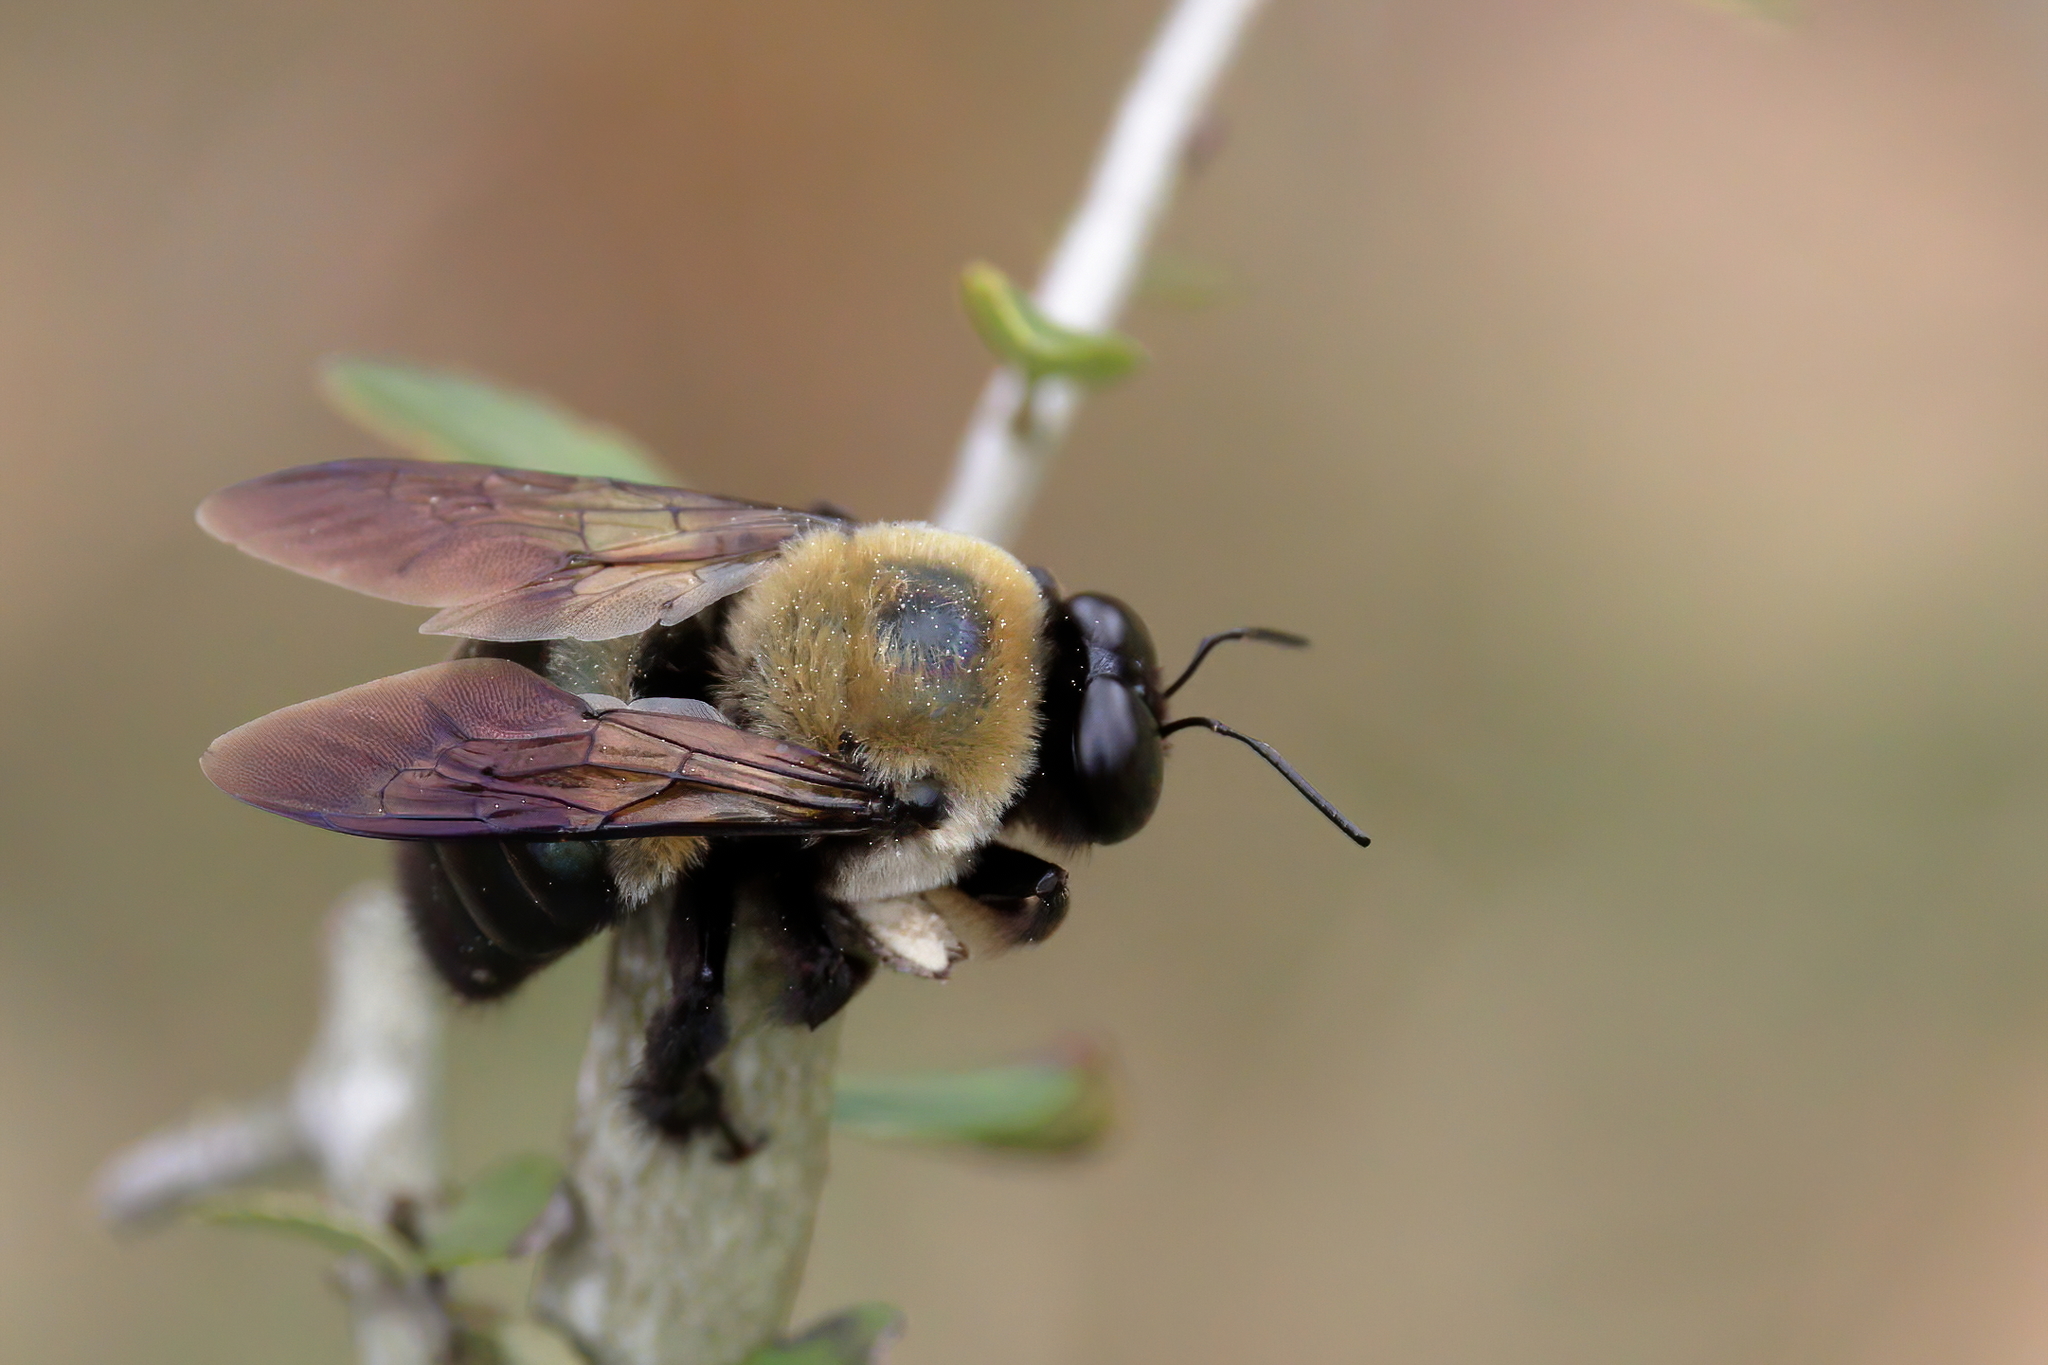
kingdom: Animalia
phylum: Arthropoda
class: Insecta
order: Hymenoptera
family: Apidae
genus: Xylocopa
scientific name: Xylocopa virginica
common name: Carpenter bee
